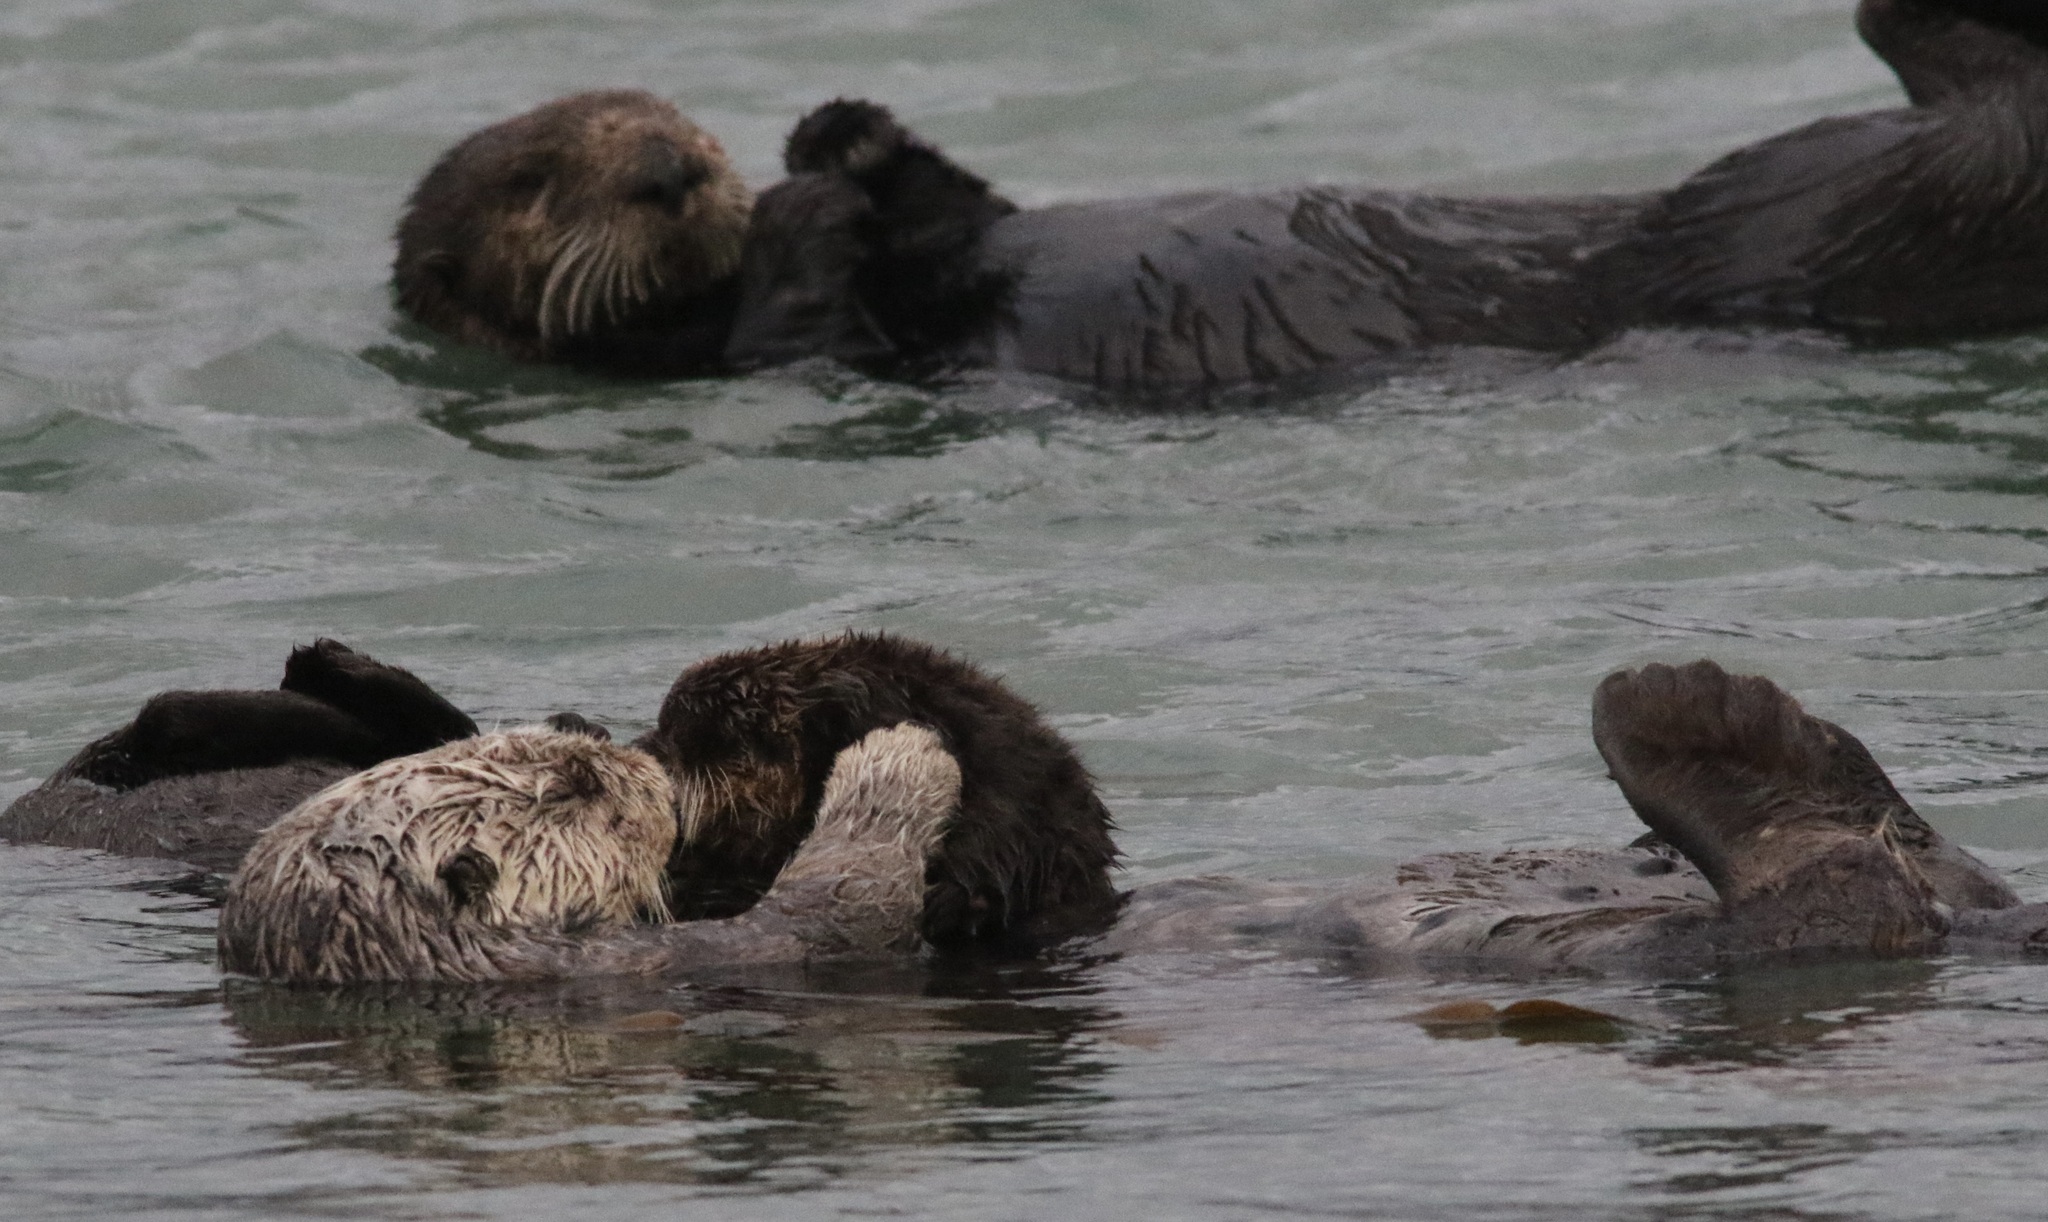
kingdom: Animalia
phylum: Chordata
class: Mammalia
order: Carnivora
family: Mustelidae
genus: Enhydra
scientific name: Enhydra lutris
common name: Sea otter
